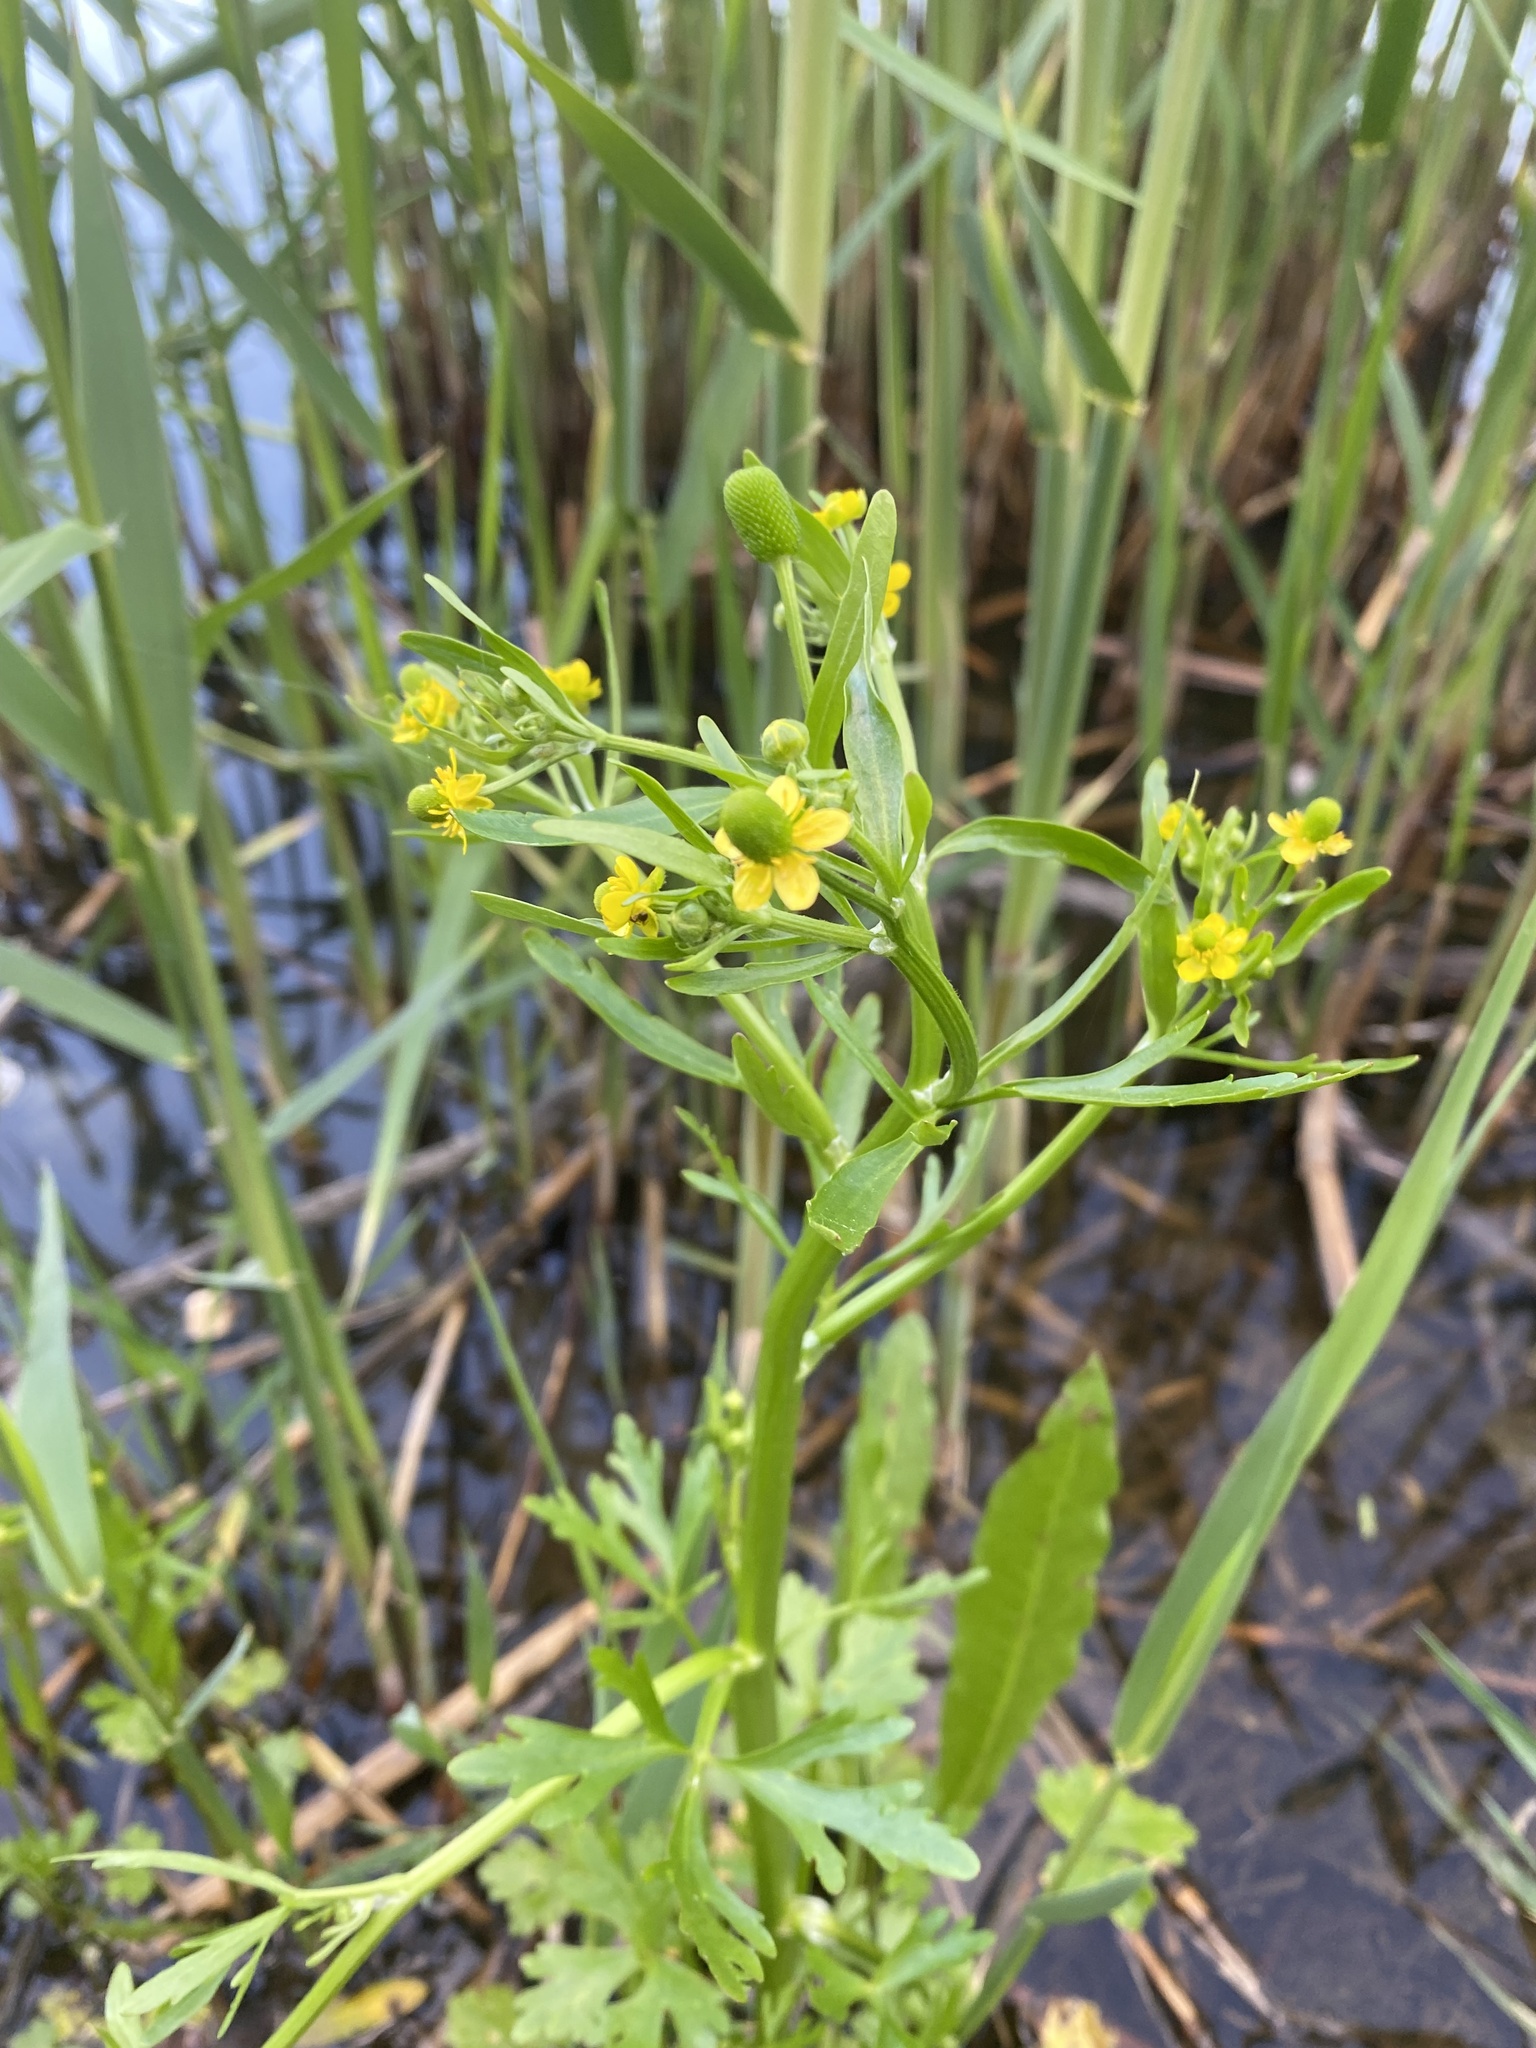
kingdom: Plantae
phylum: Tracheophyta
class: Magnoliopsida
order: Ranunculales
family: Ranunculaceae
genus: Ranunculus
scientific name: Ranunculus sceleratus
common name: Celery-leaved buttercup
